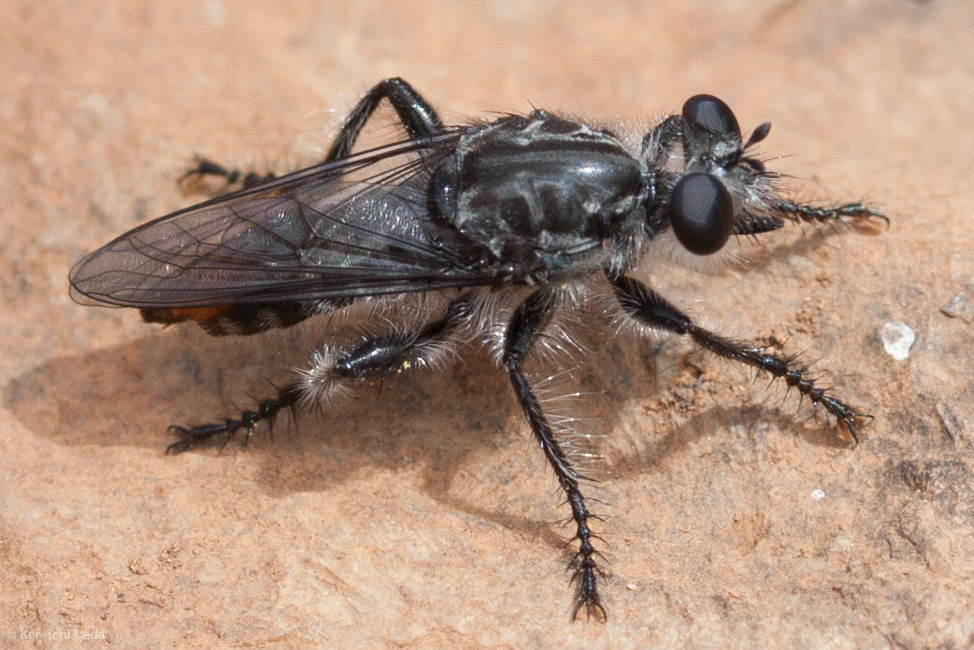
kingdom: Animalia
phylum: Arthropoda
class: Insecta
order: Diptera
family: Asilidae
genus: Andrenosoma
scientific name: Andrenosoma fulvicaudum
